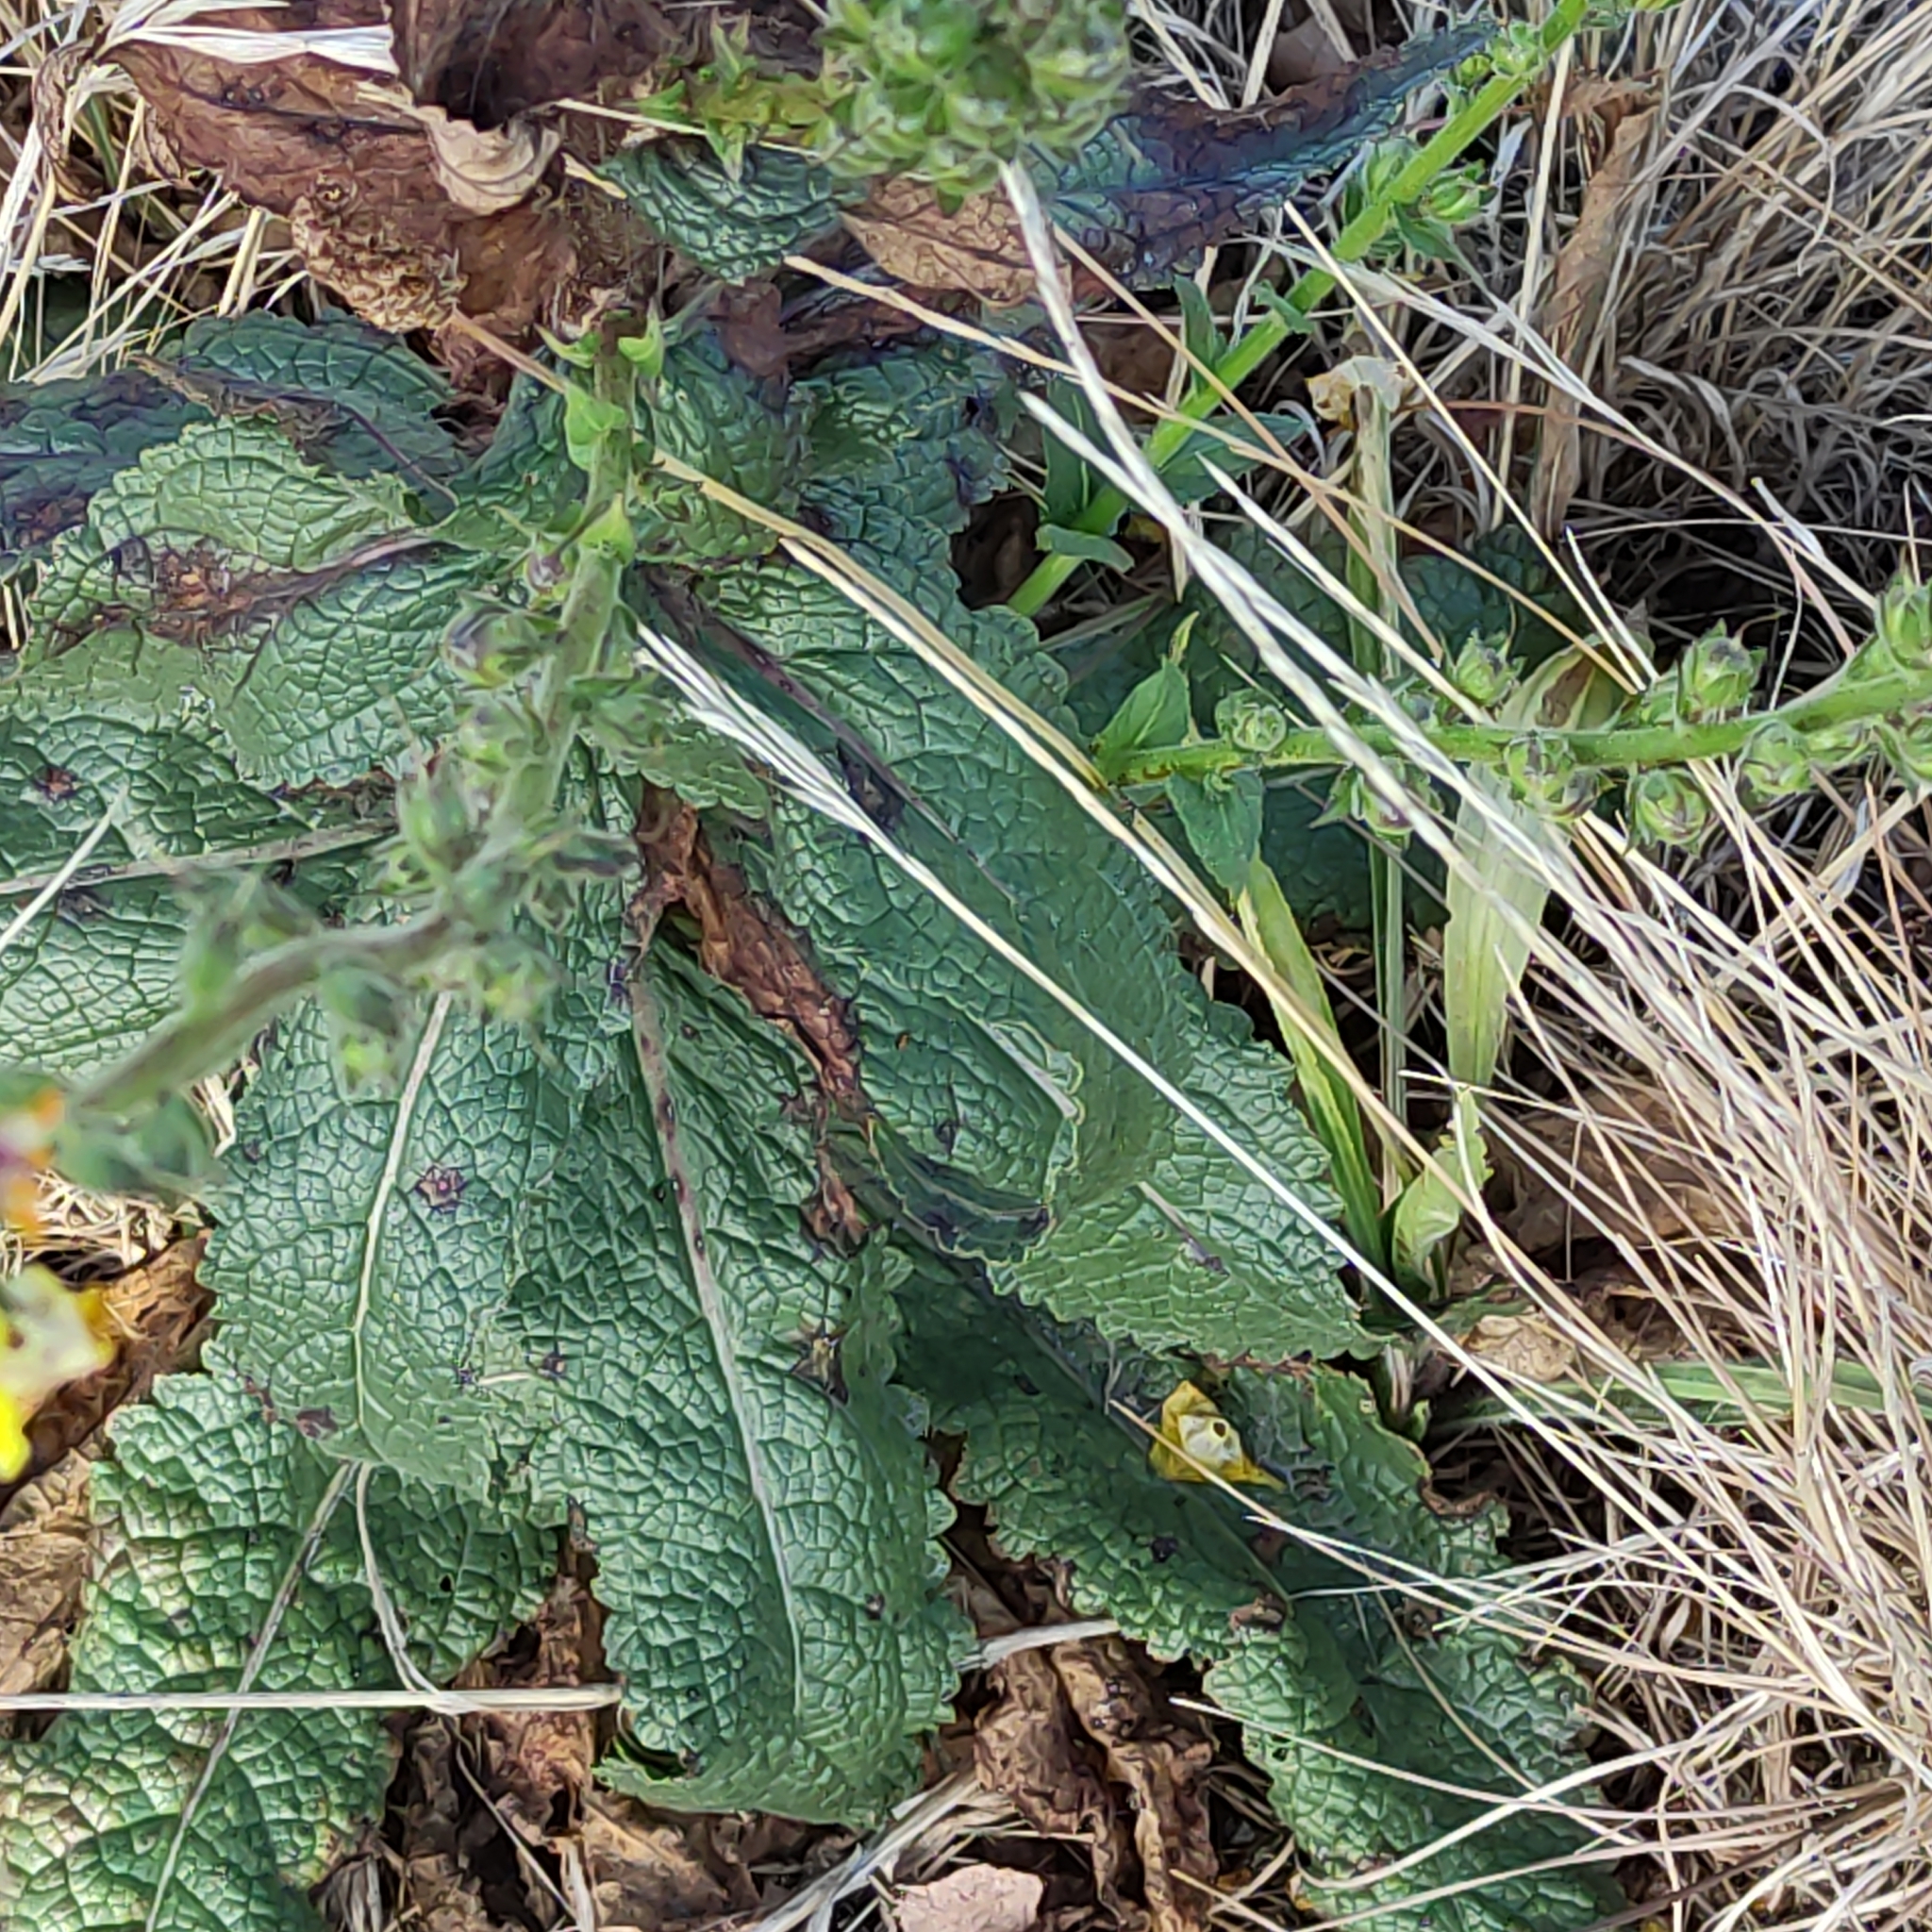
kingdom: Plantae
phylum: Tracheophyta
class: Magnoliopsida
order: Lamiales
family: Scrophulariaceae
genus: Verbascum
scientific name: Verbascum virgatum
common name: Twiggy mullein
